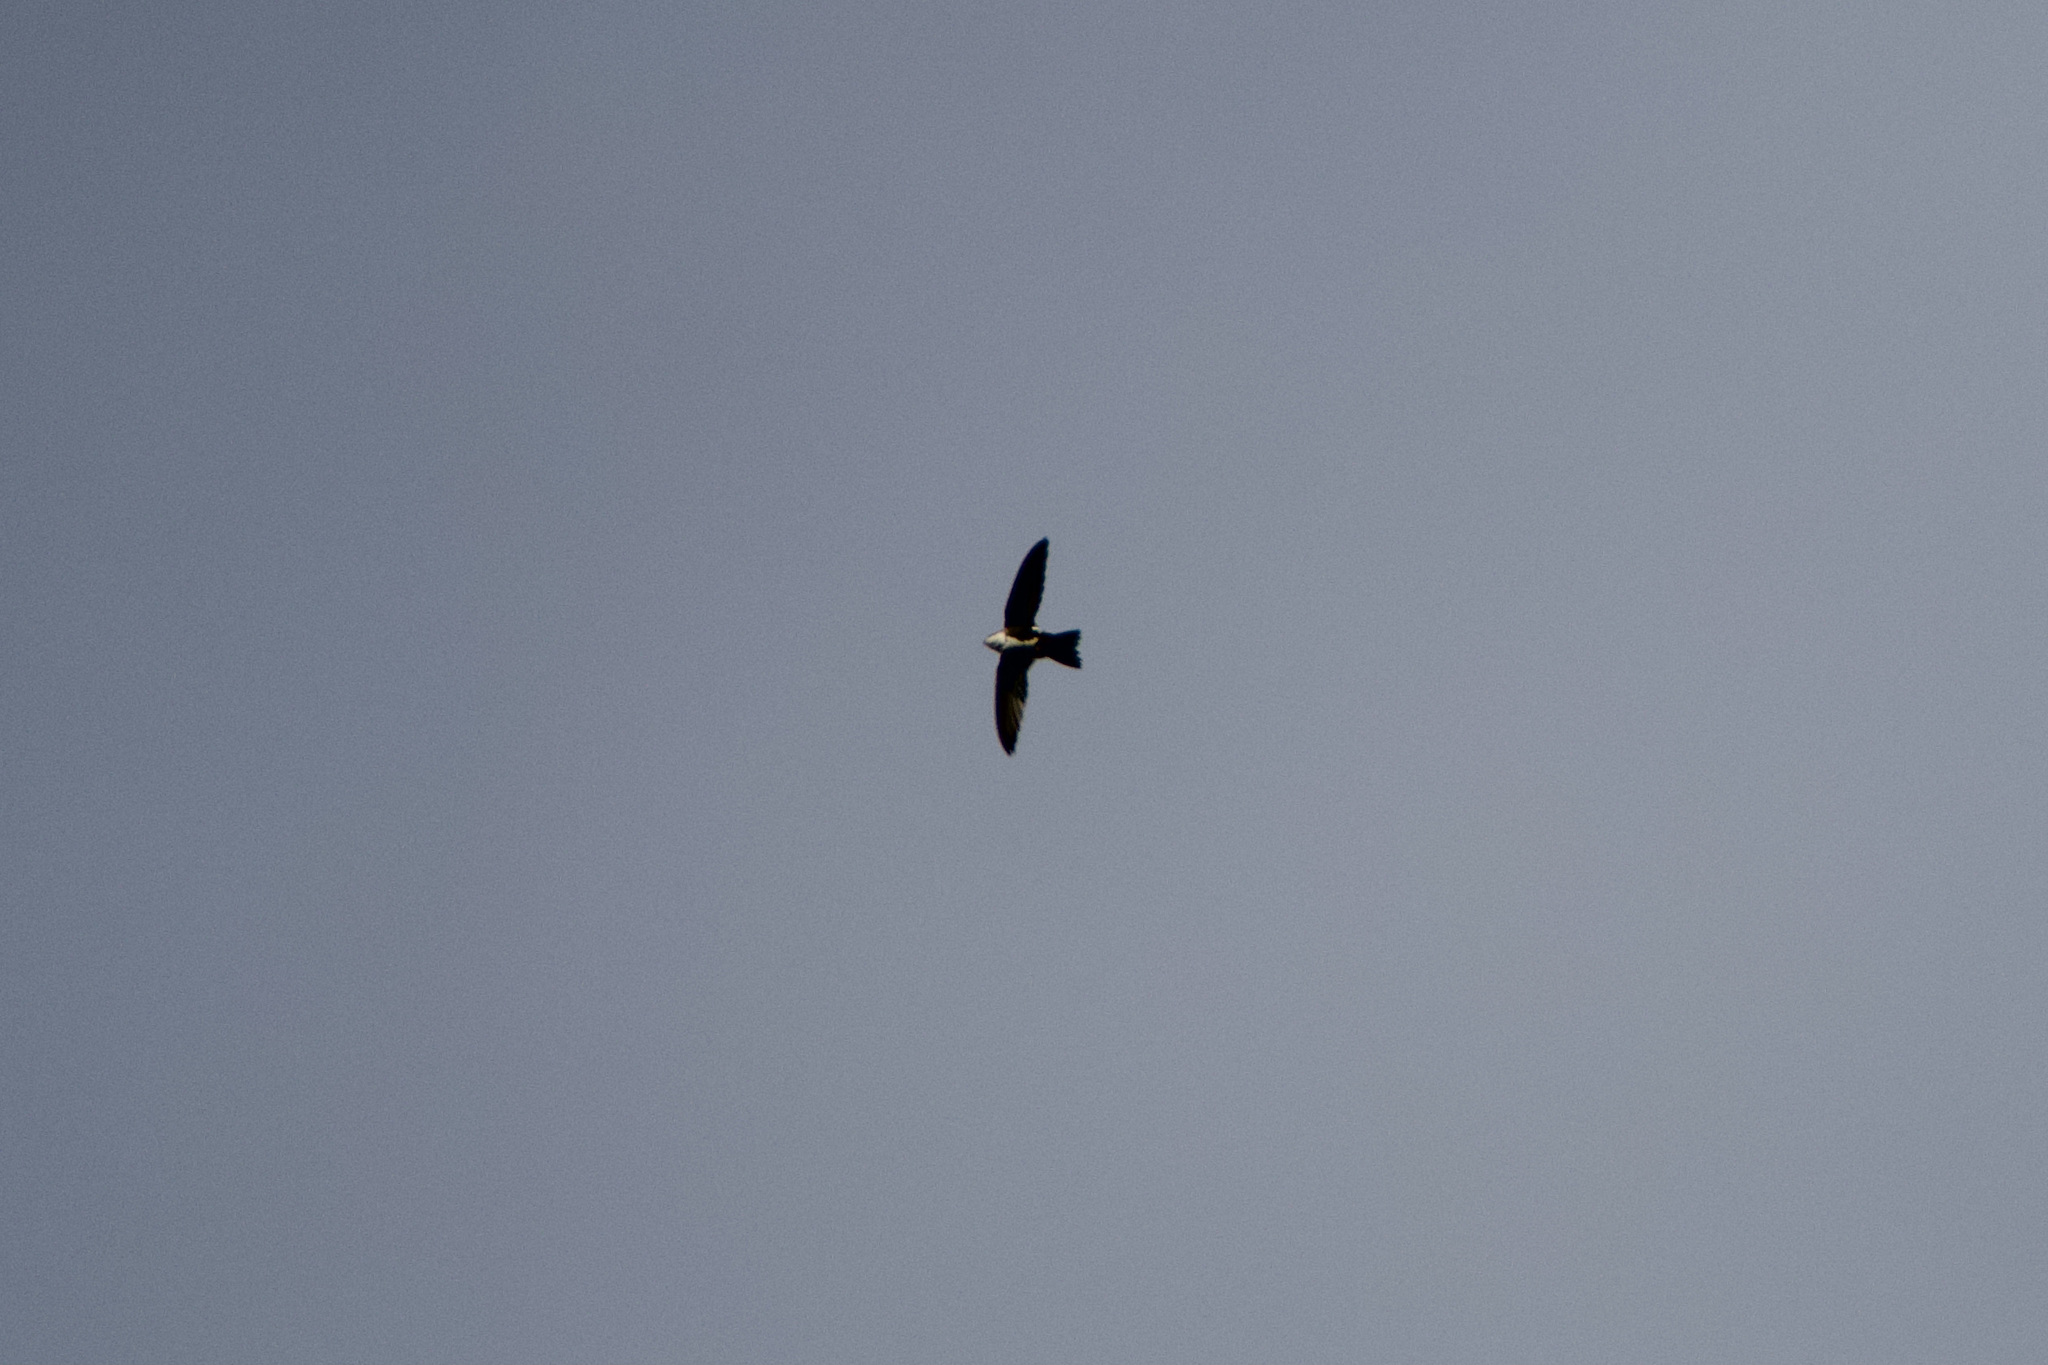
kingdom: Animalia
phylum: Chordata
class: Aves
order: Apodiformes
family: Apodidae
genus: Aeronautes
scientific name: Aeronautes saxatalis
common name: White-throated swift
